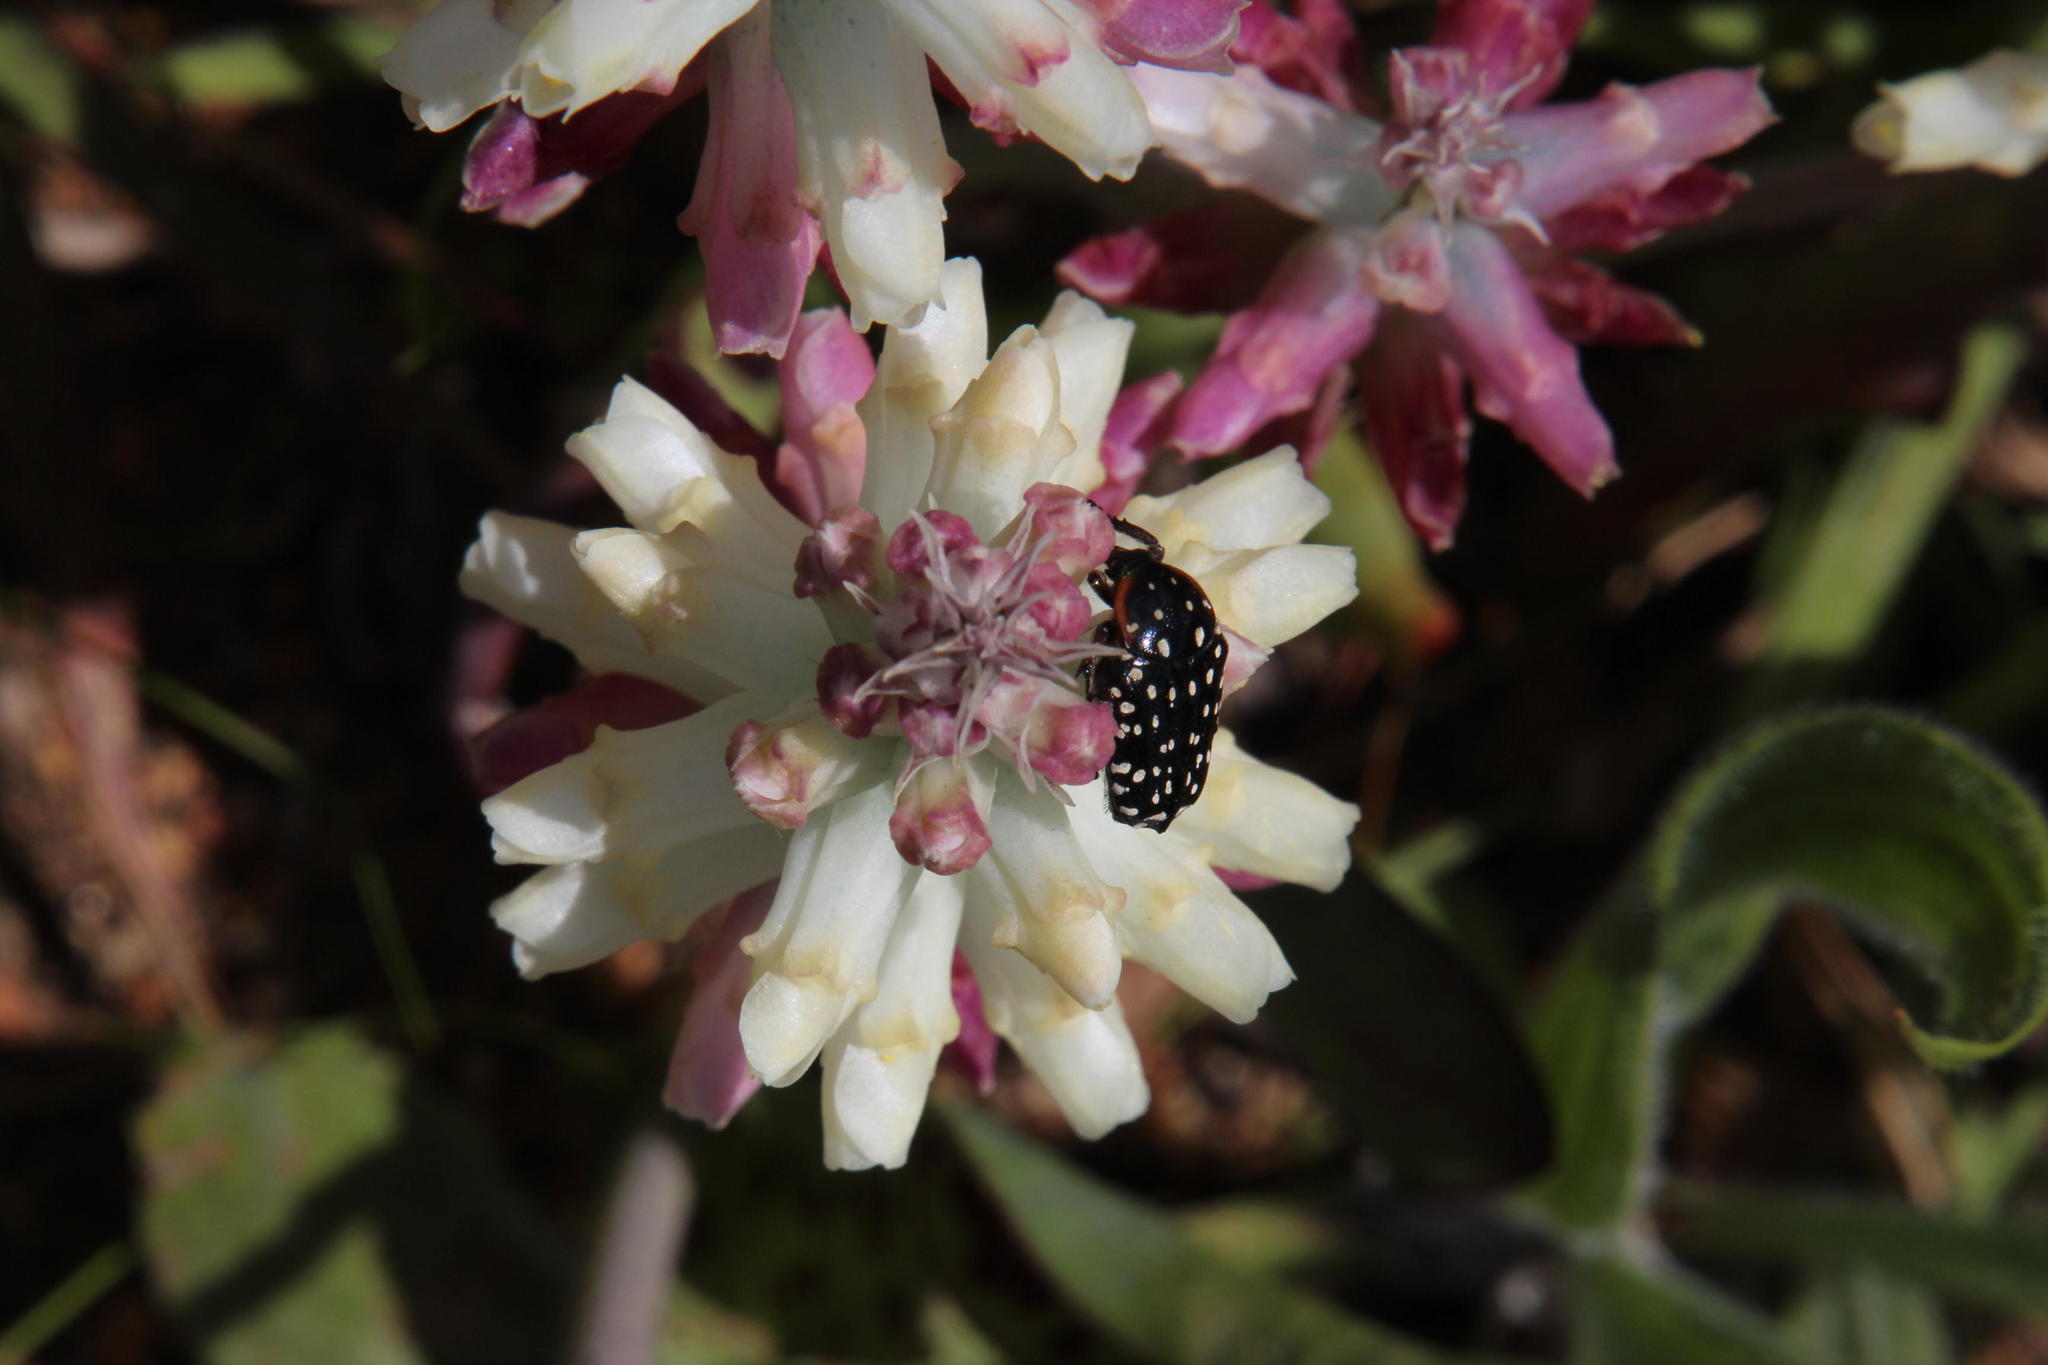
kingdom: Animalia
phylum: Arthropoda
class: Insecta
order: Coleoptera
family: Scarabaeidae
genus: Oxythyrea
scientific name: Oxythyrea
